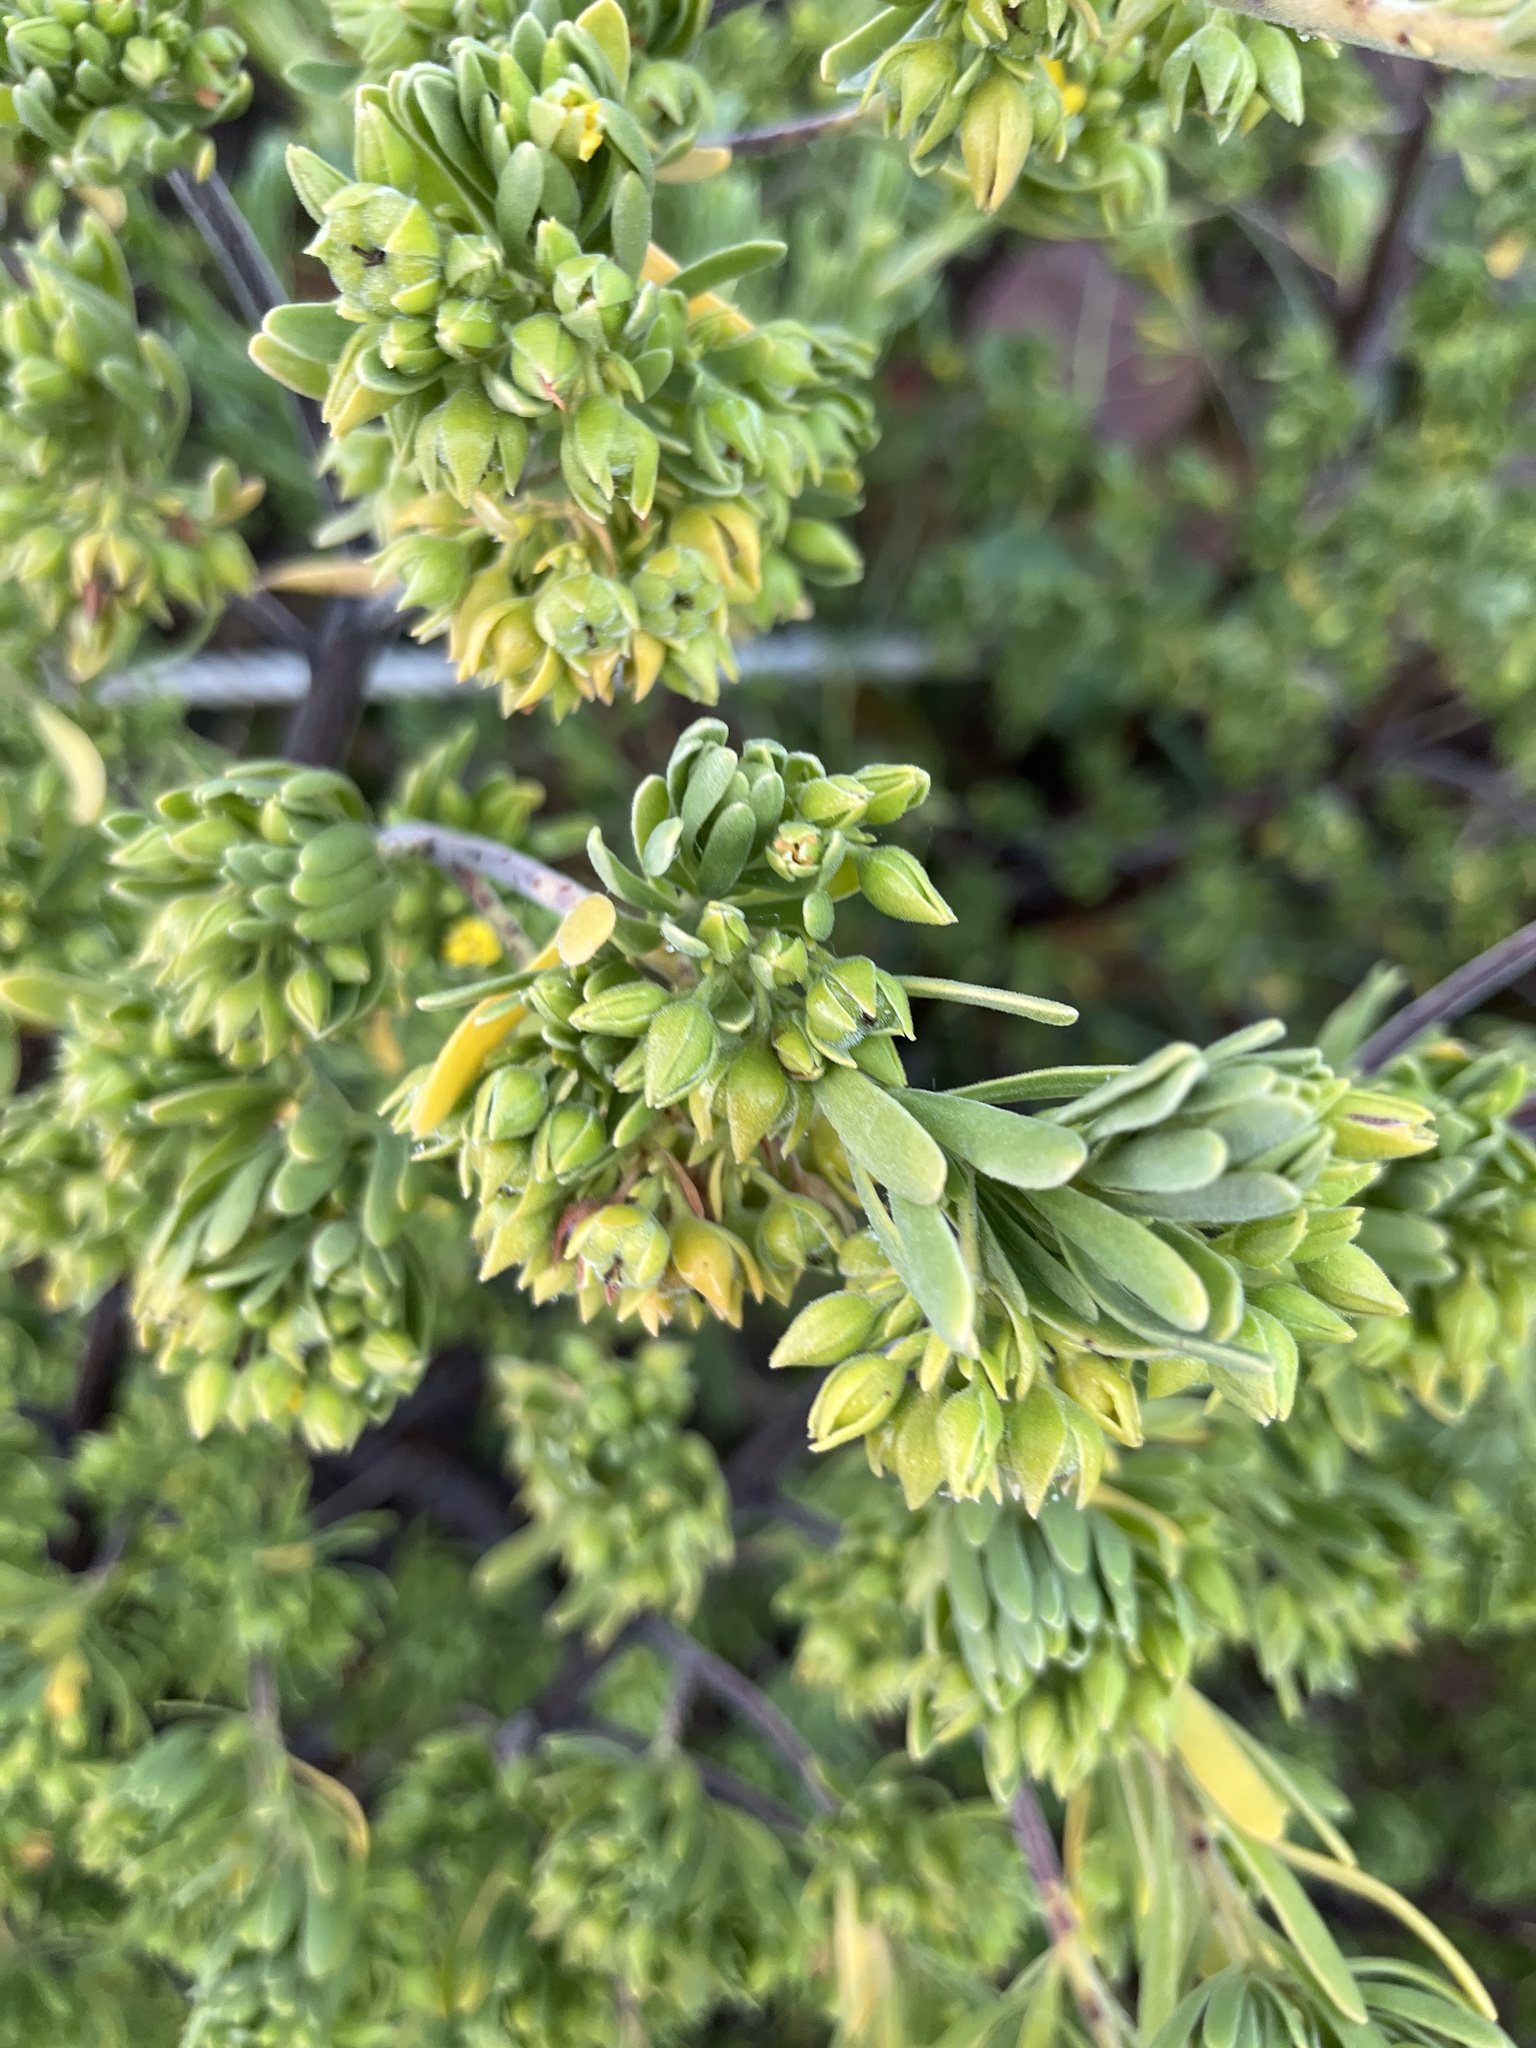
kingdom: Plantae
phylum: Tracheophyta
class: Magnoliopsida
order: Fabales
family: Surianaceae
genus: Suriana
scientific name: Suriana maritima
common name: Bay-cedar
